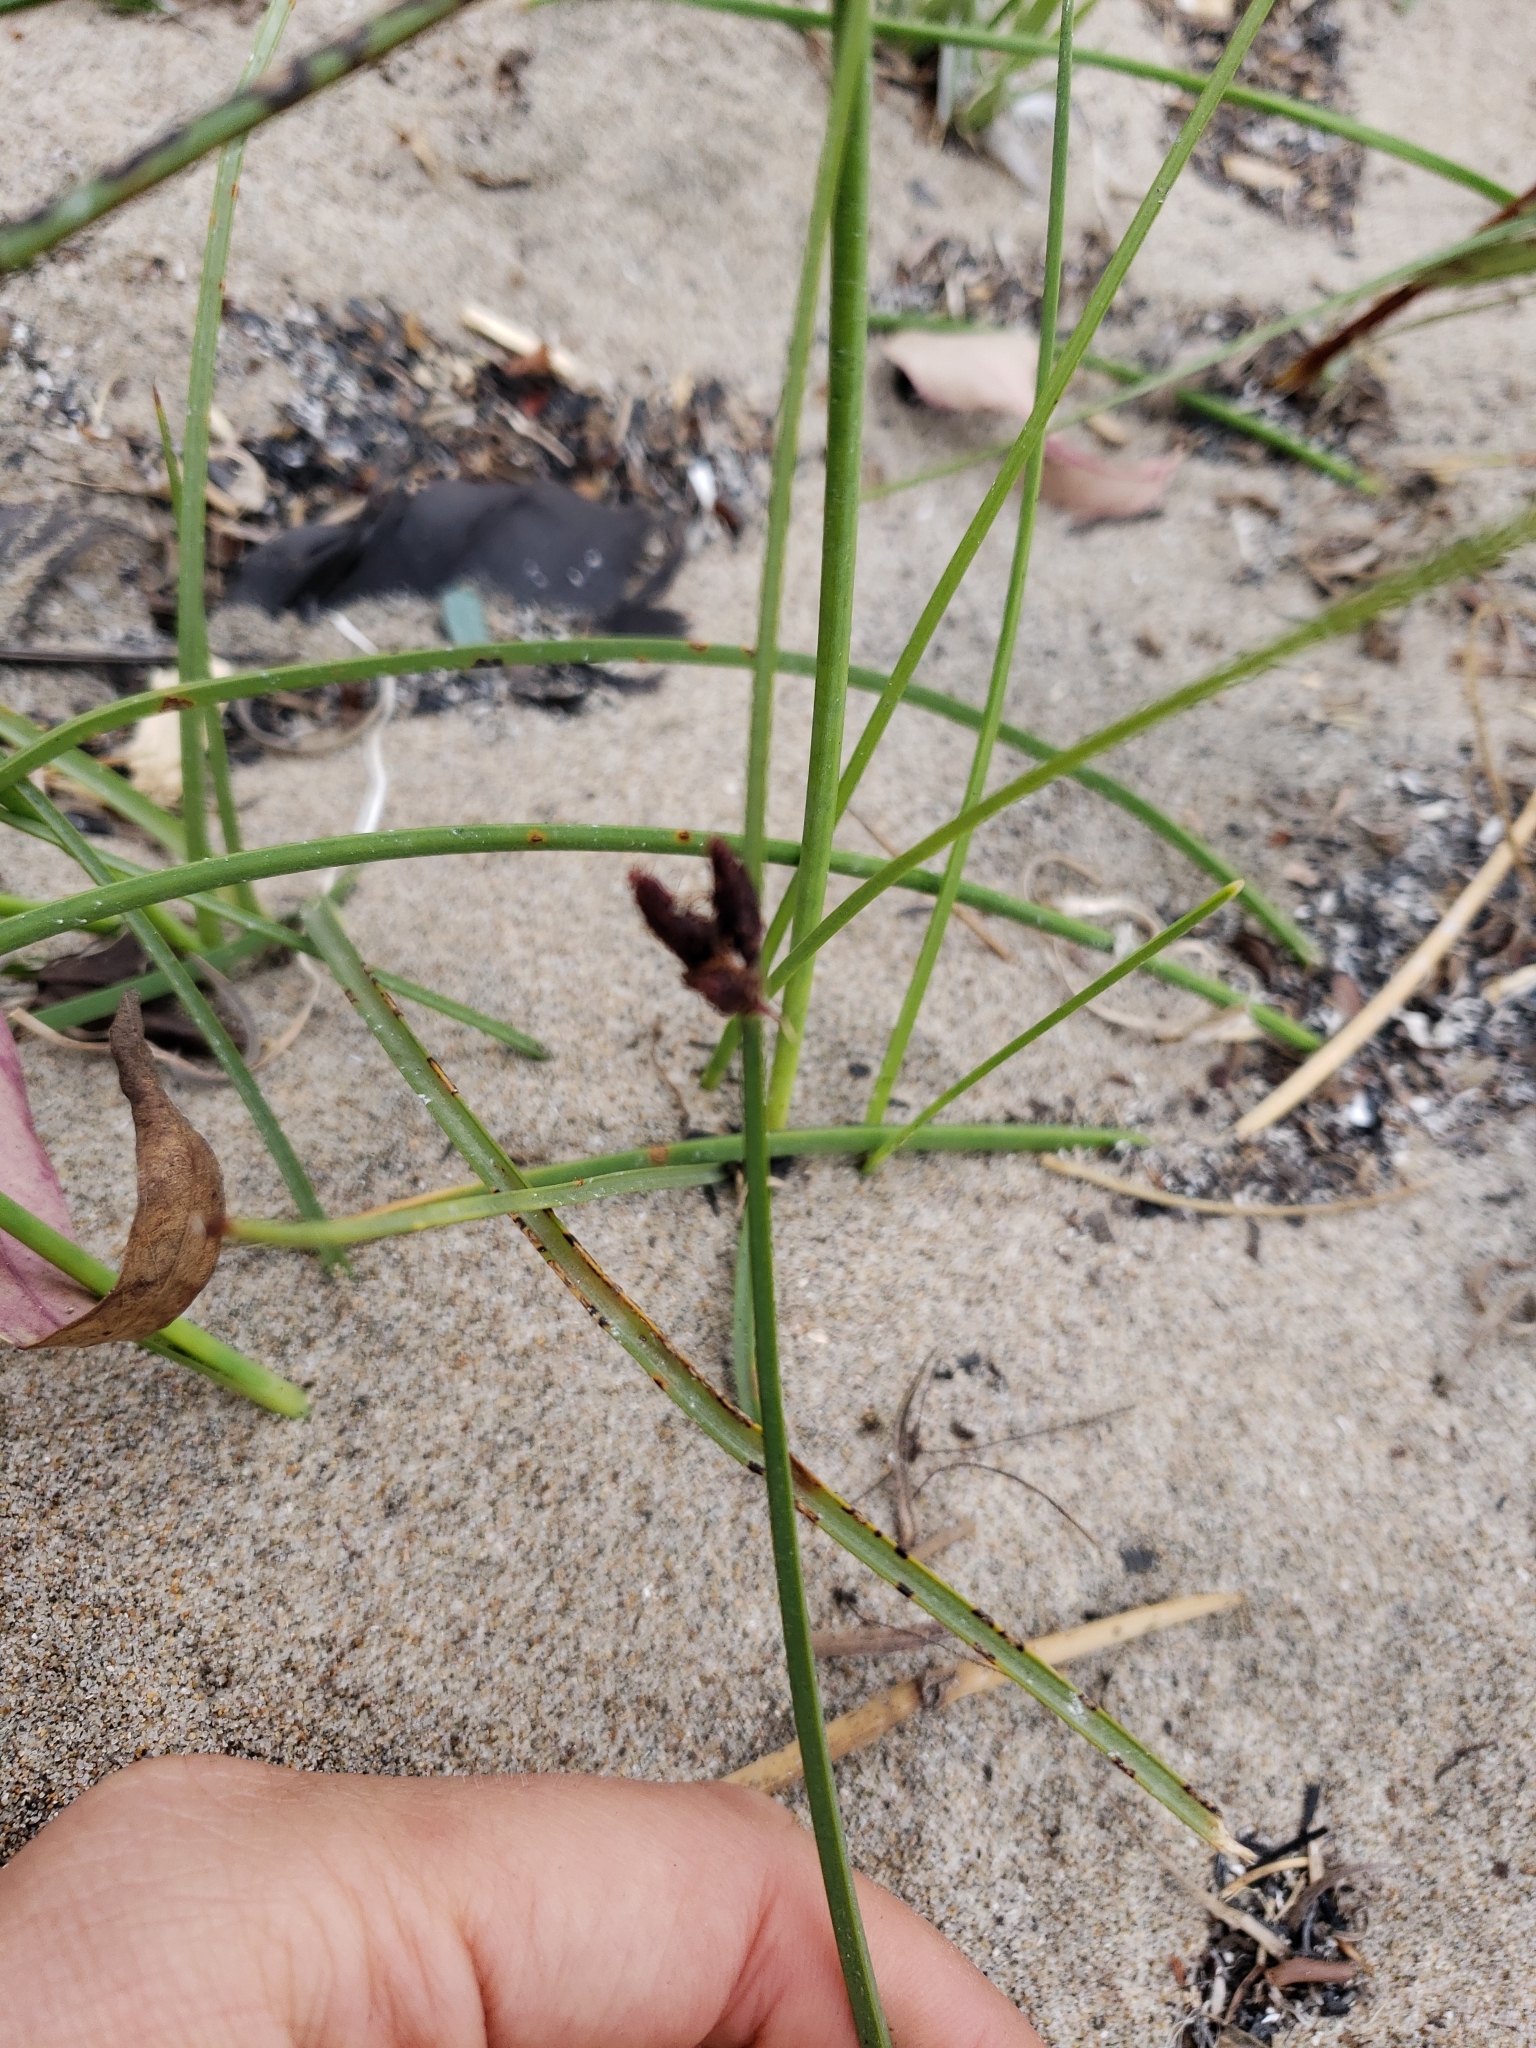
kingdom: Plantae
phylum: Tracheophyta
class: Liliopsida
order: Poales
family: Cyperaceae
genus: Schoenoplectus
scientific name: Schoenoplectus pungens
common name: Sharp club-rush
